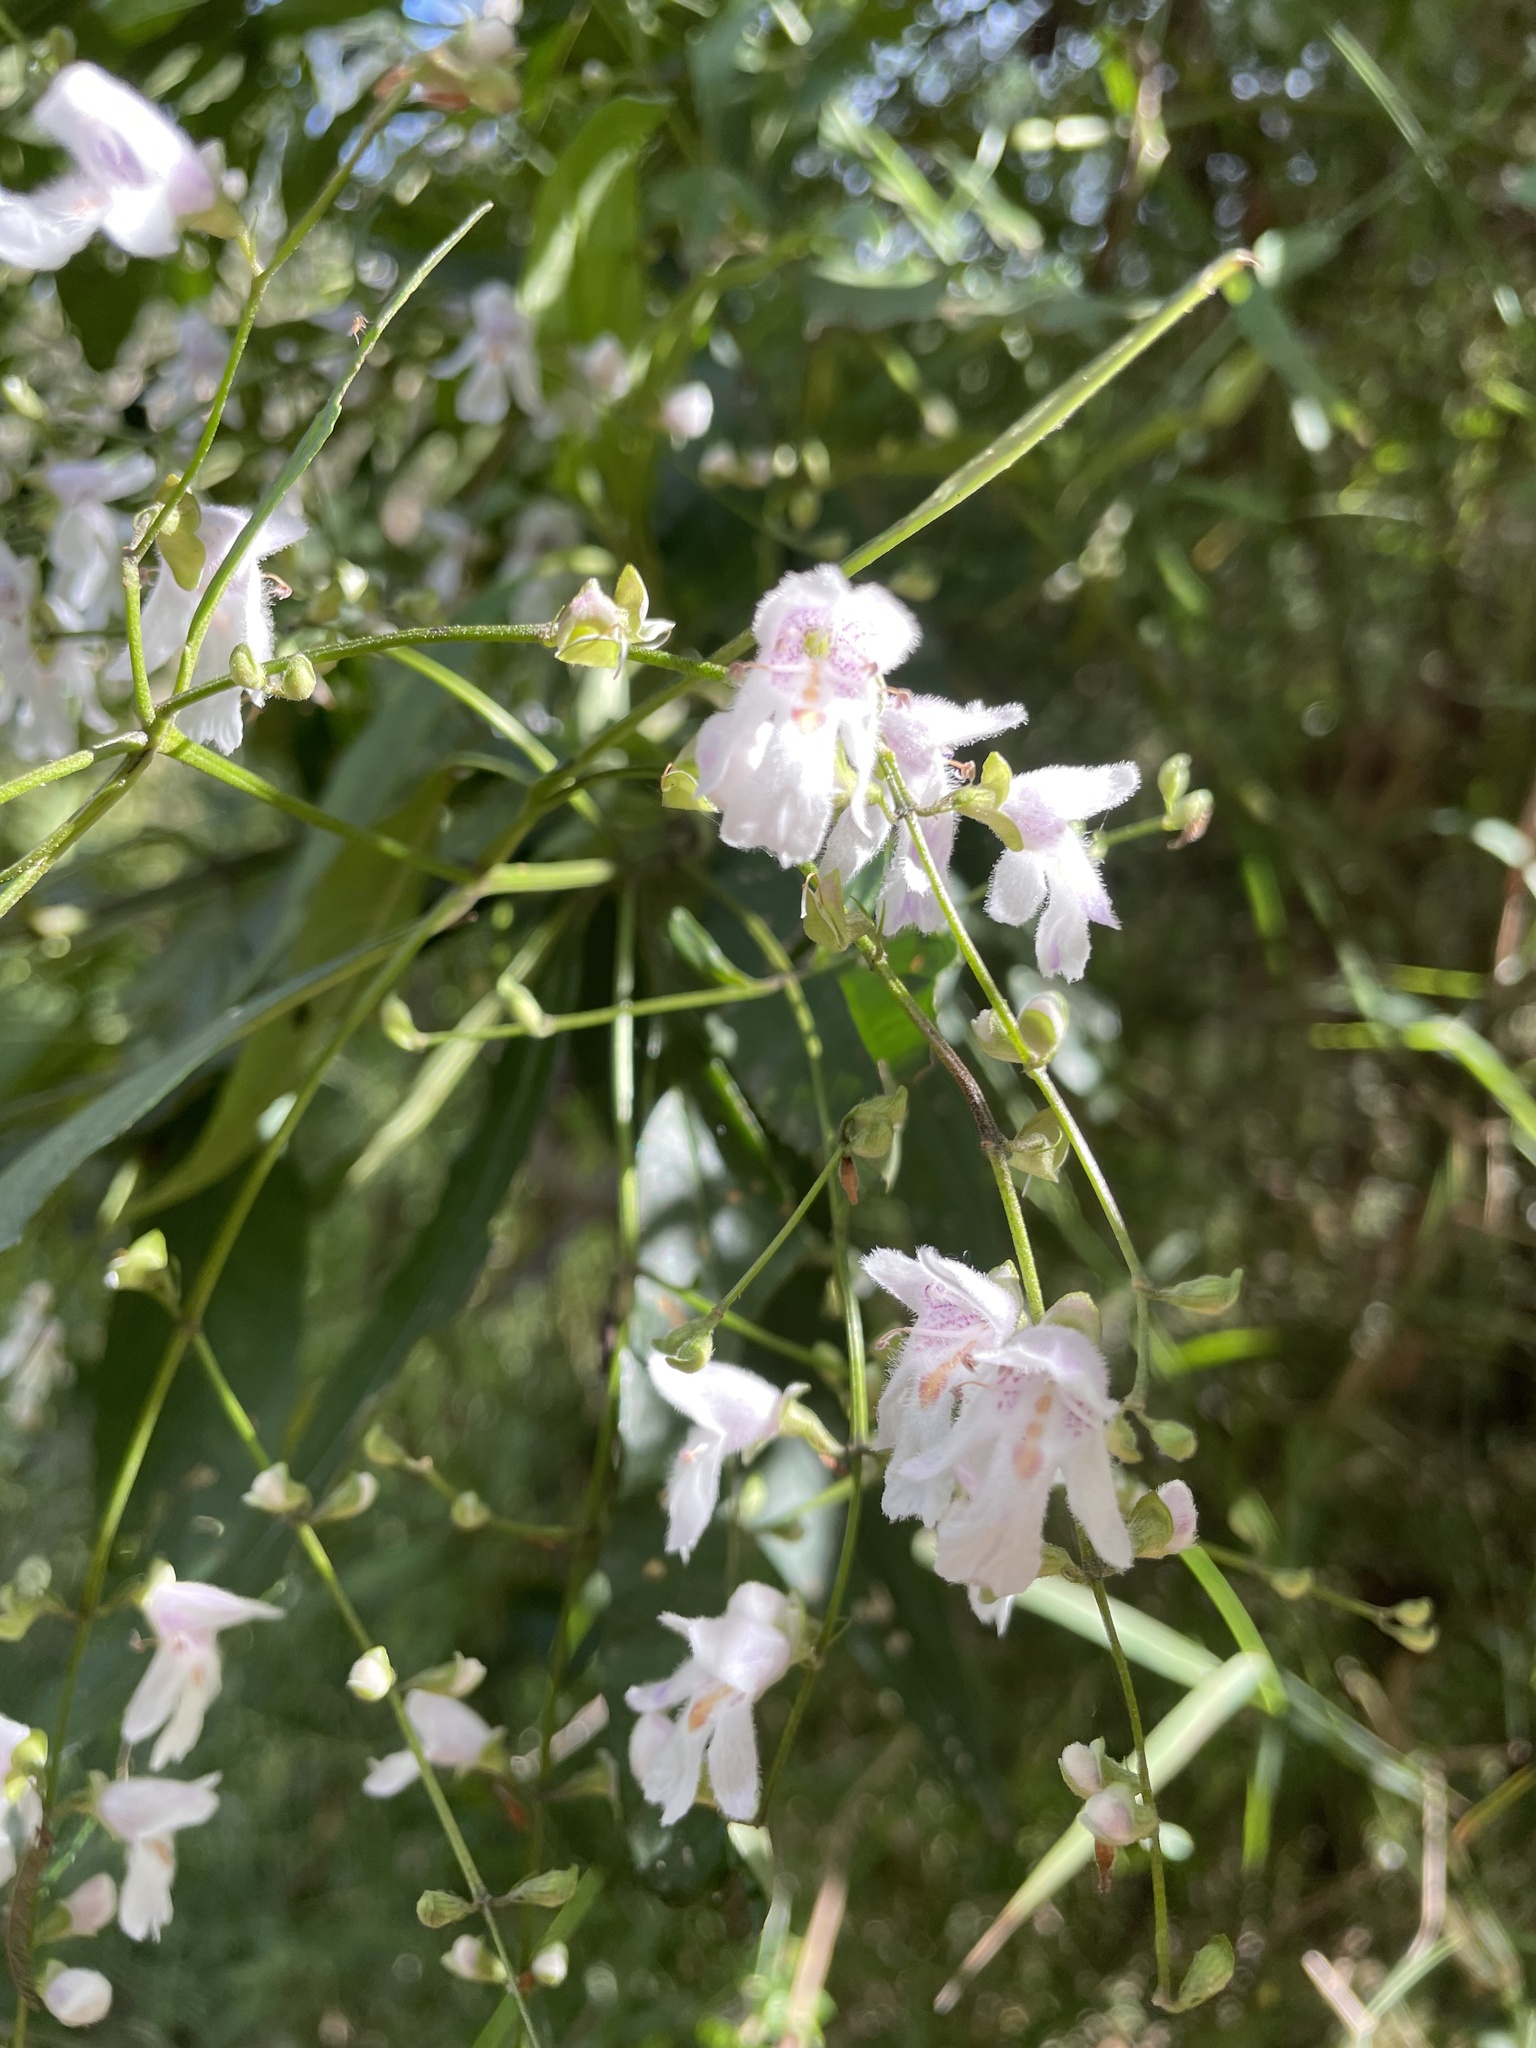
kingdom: Plantae
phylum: Tracheophyta
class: Magnoliopsida
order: Lamiales
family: Lamiaceae
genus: Prostanthera
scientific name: Prostanthera lasianthos
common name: Mountain-lilac
